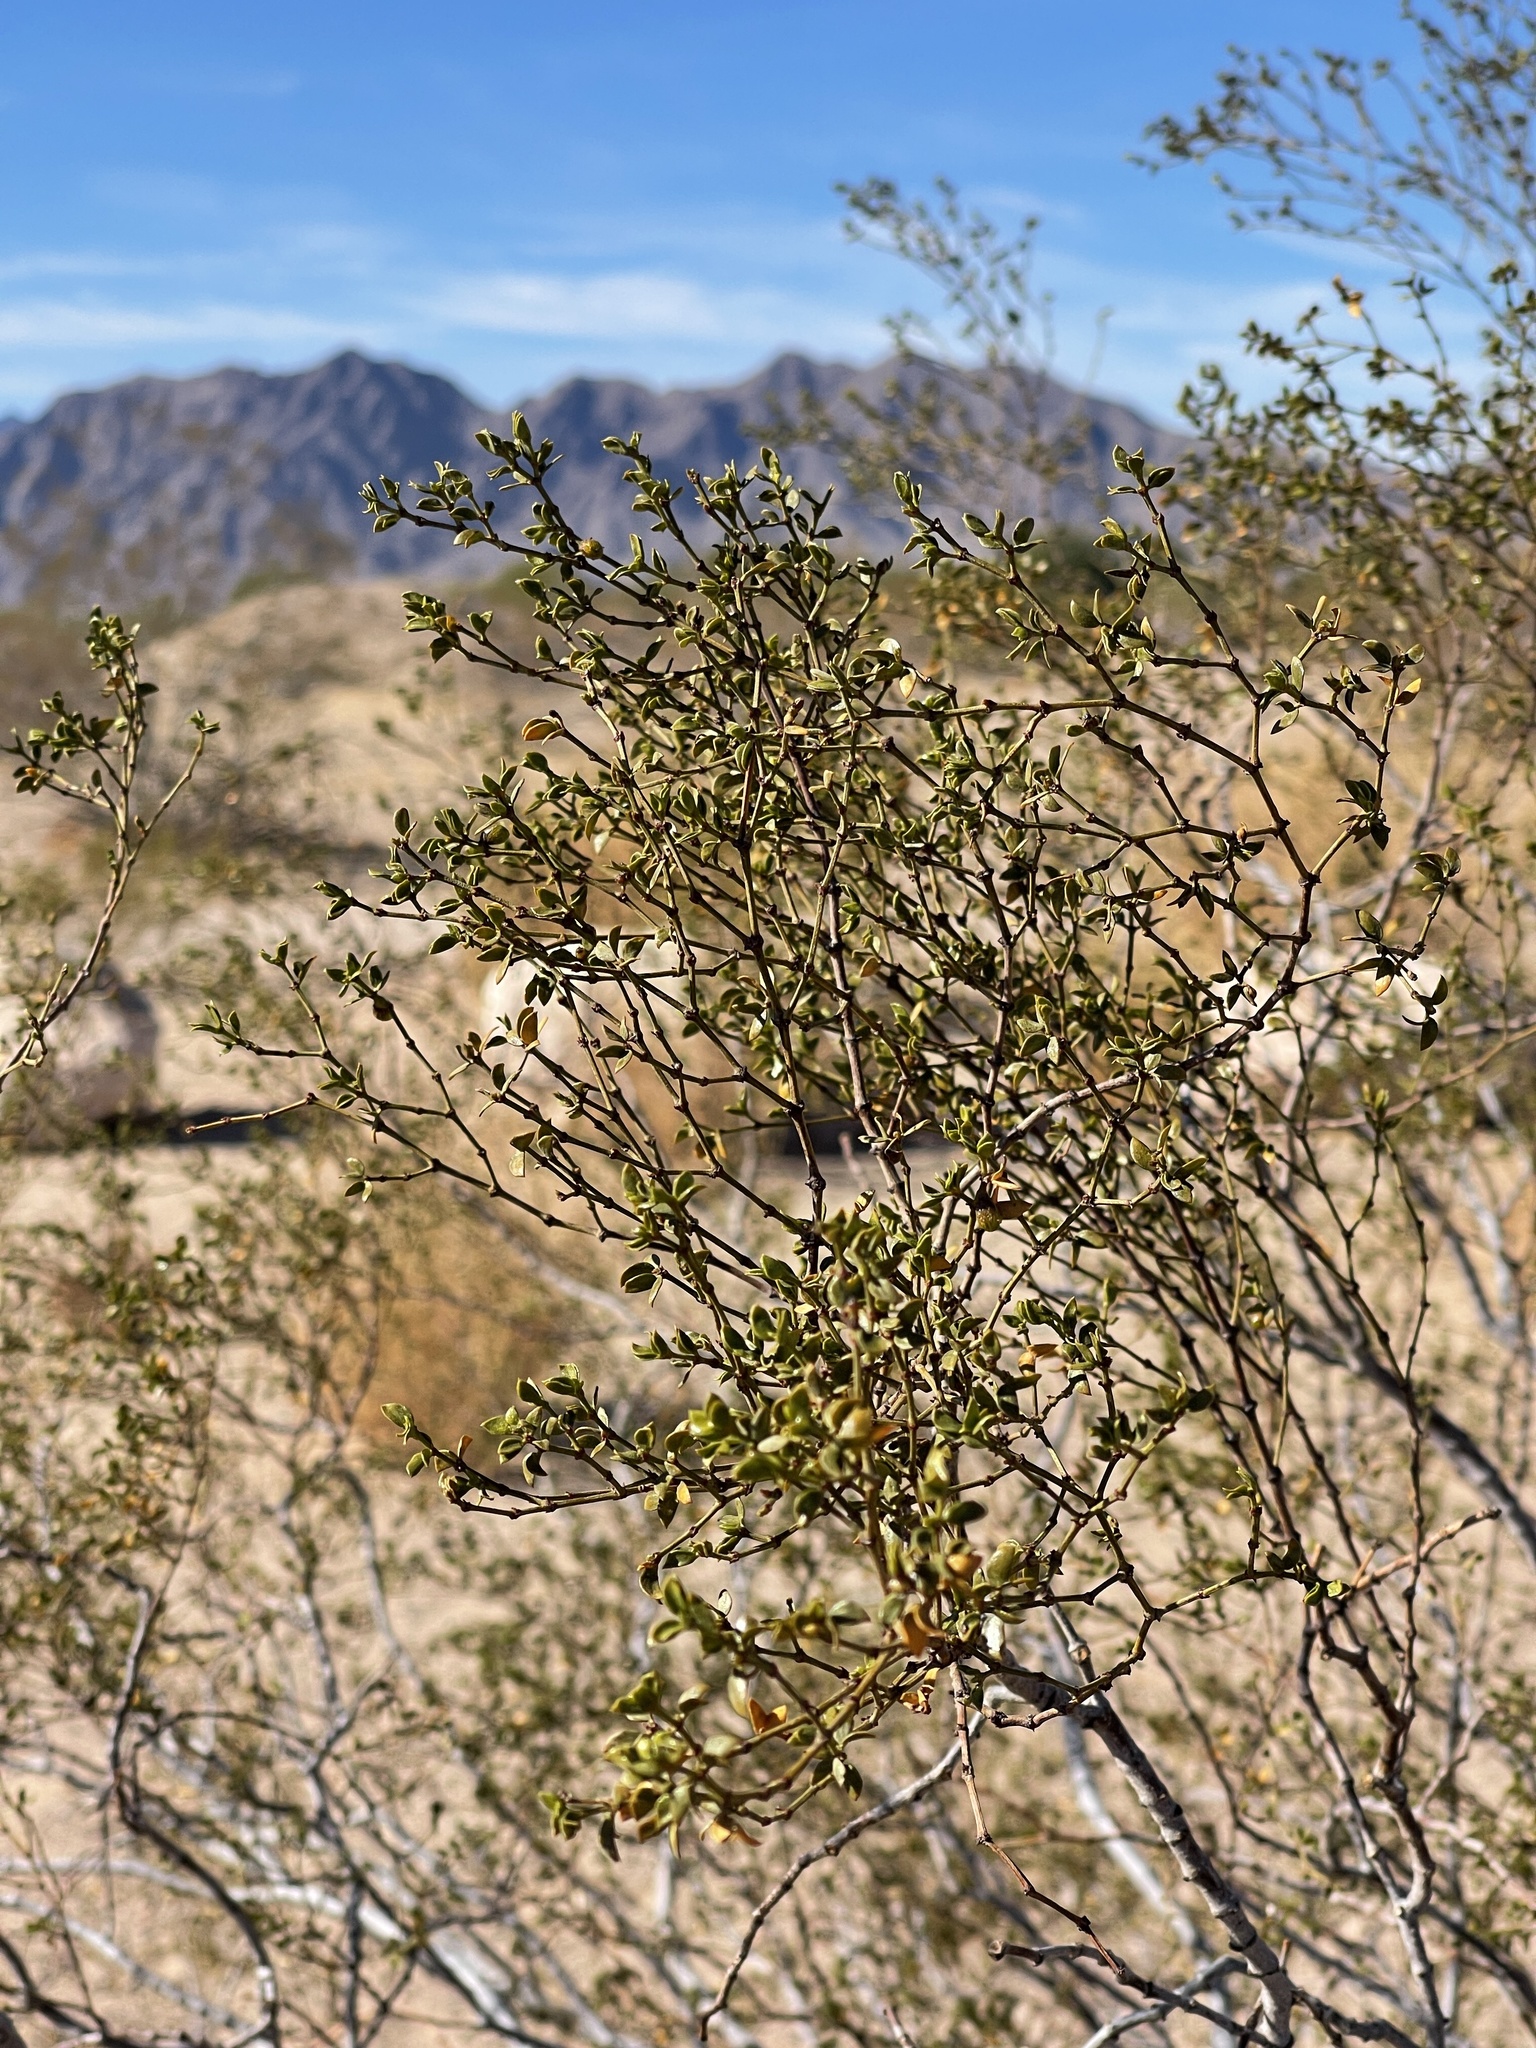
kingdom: Plantae
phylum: Tracheophyta
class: Magnoliopsida
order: Zygophyllales
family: Zygophyllaceae
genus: Larrea
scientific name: Larrea tridentata
